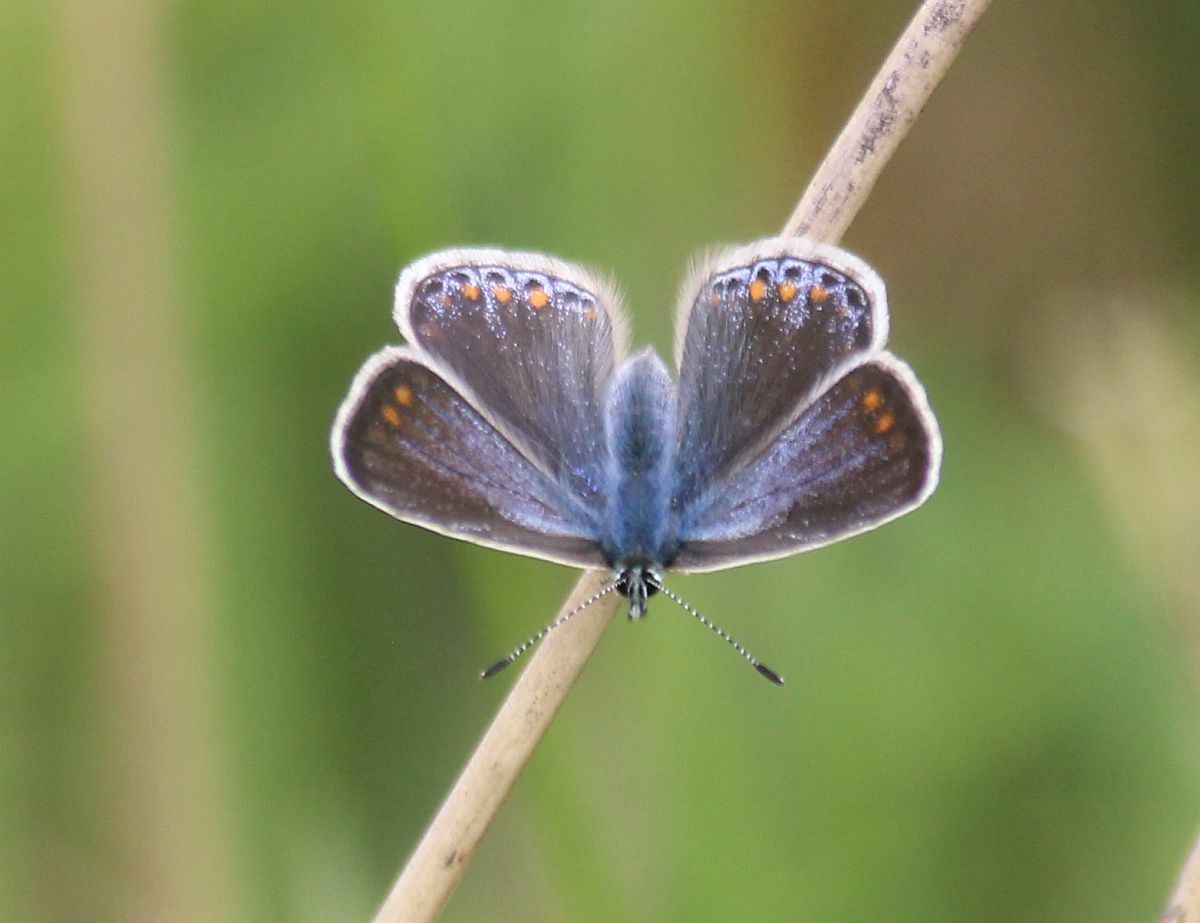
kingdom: Animalia
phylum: Arthropoda
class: Insecta
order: Lepidoptera
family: Lycaenidae
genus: Polyommatus
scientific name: Polyommatus icarus
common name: Common blue
